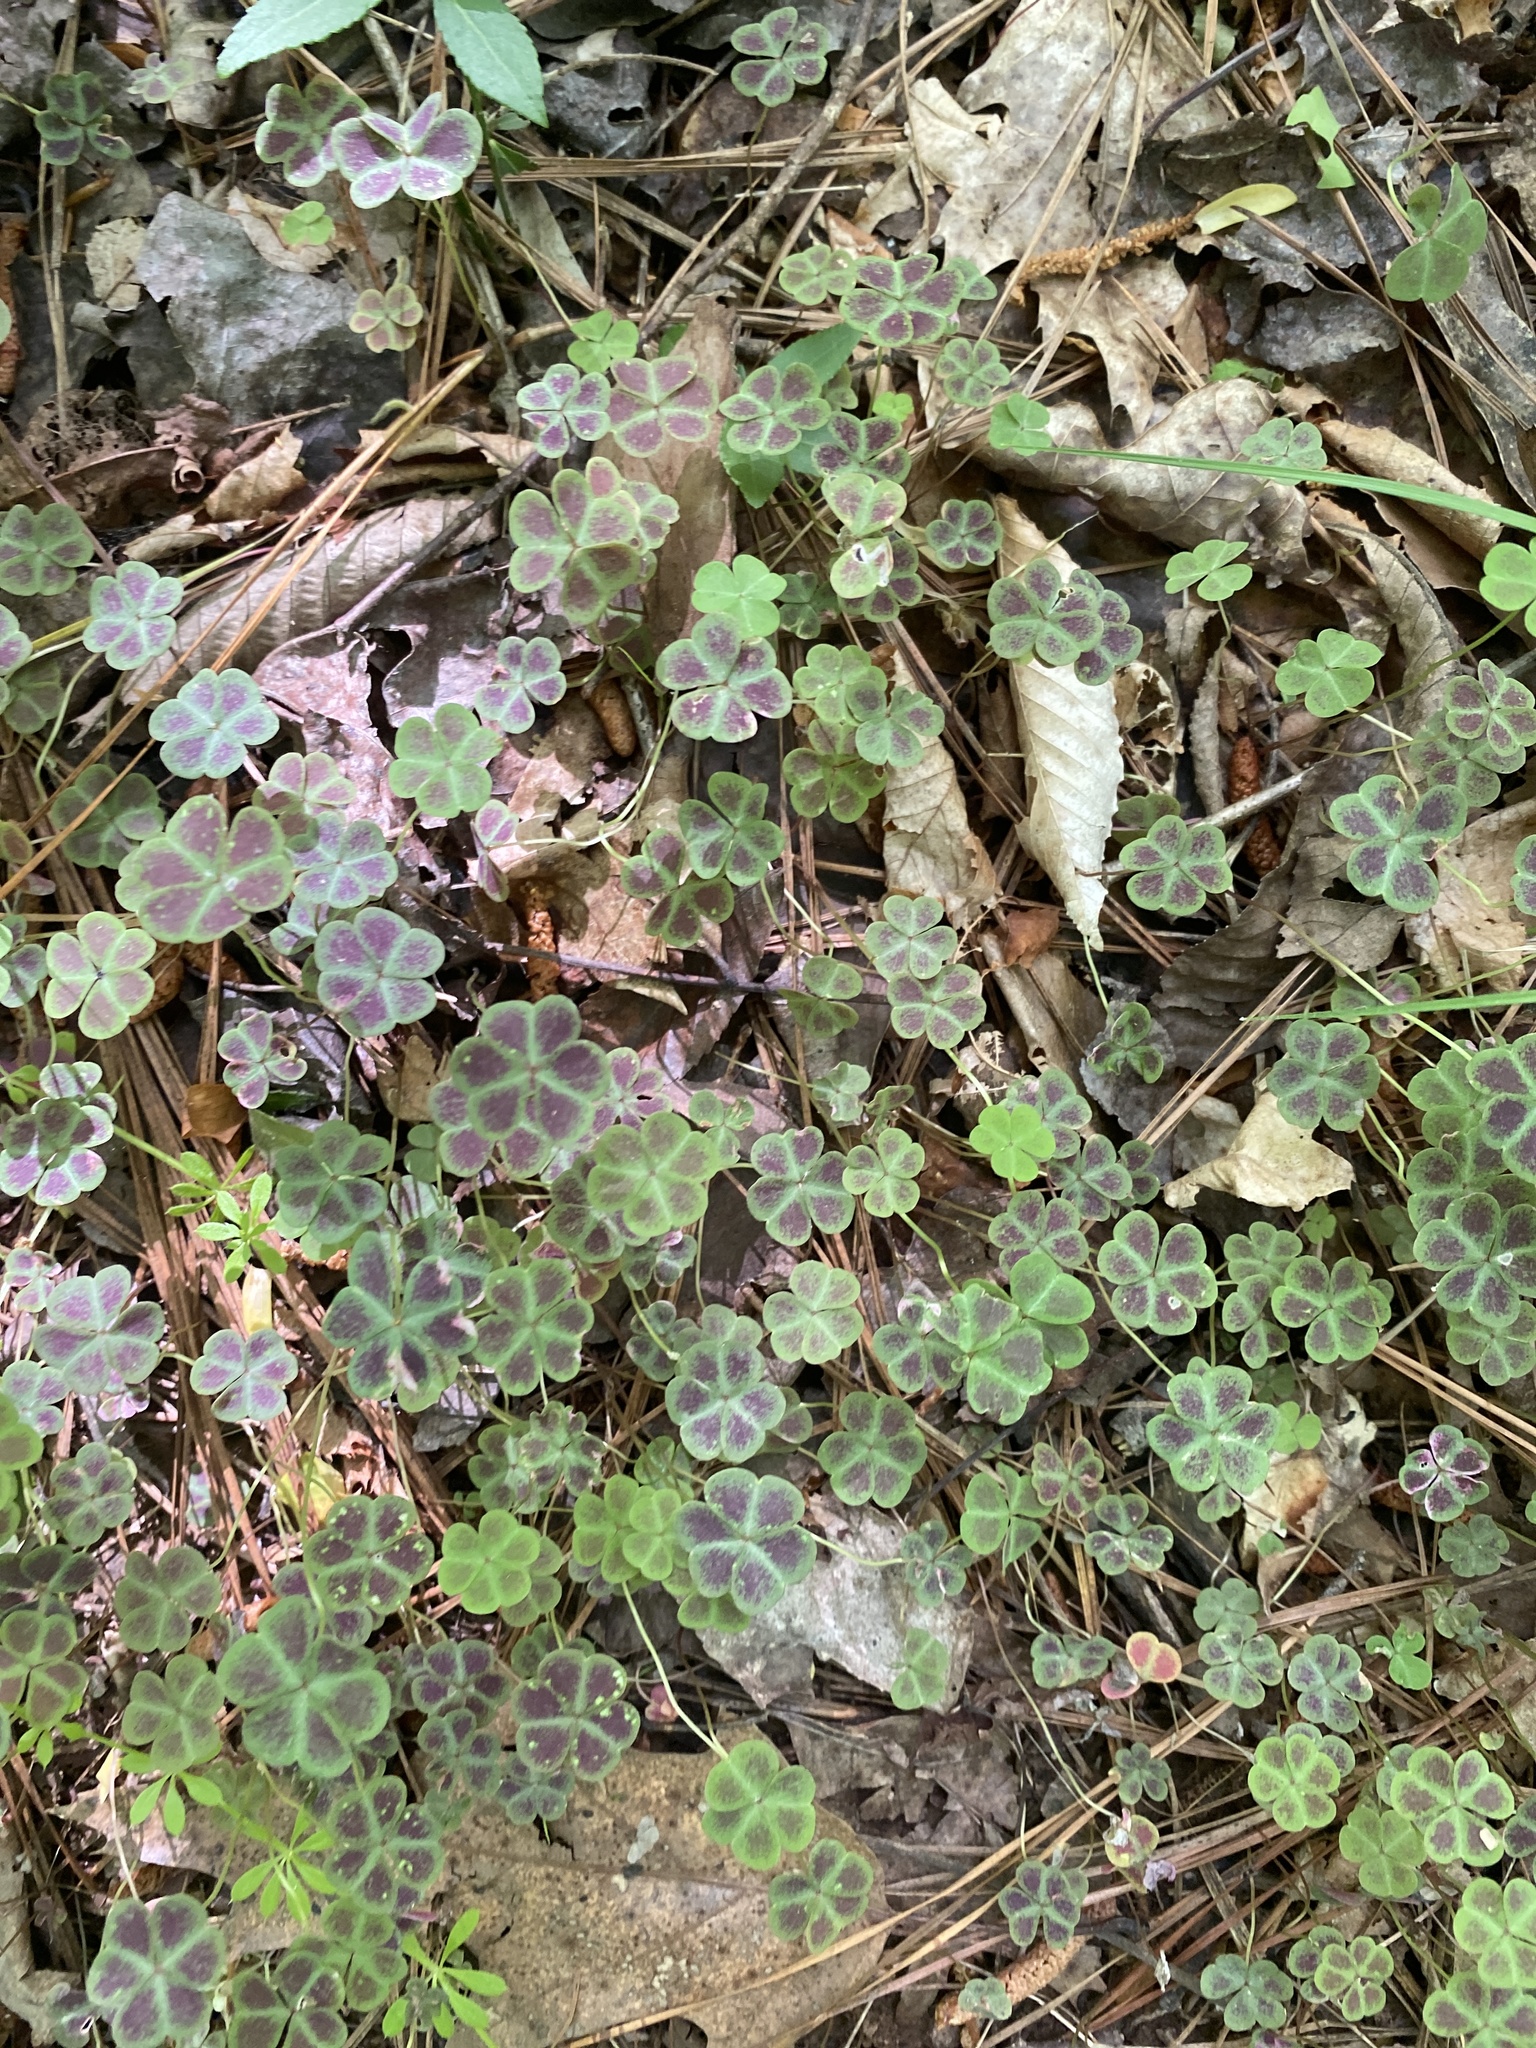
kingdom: Plantae
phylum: Tracheophyta
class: Magnoliopsida
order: Oxalidales
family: Oxalidaceae
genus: Oxalis
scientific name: Oxalis violacea
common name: Violet wood-sorrel
